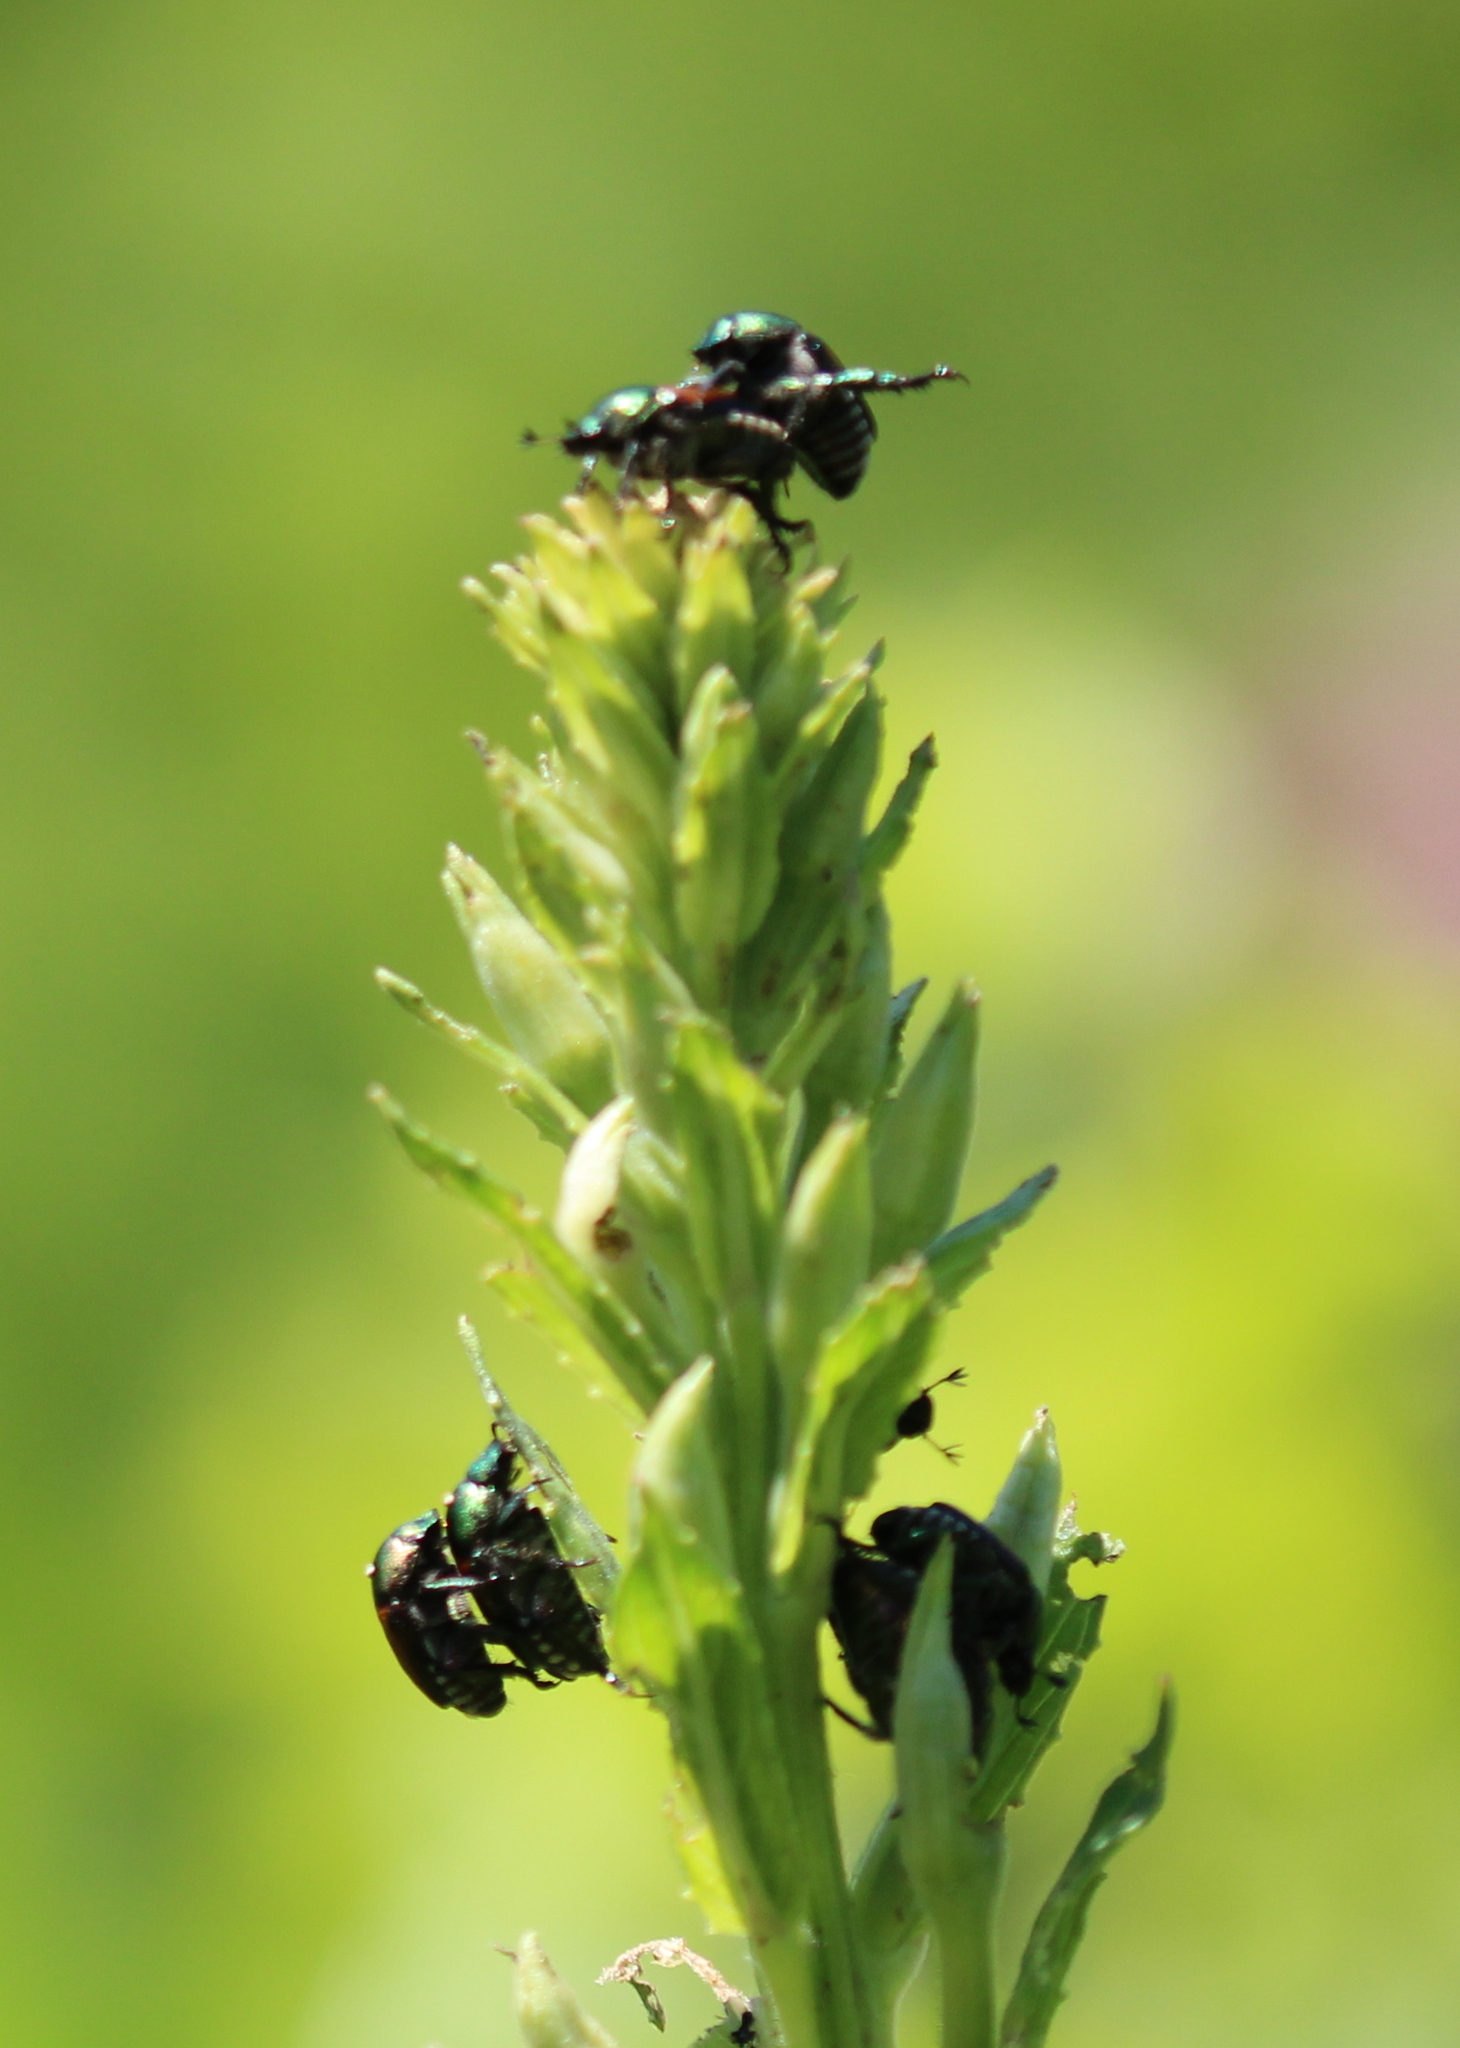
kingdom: Animalia
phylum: Arthropoda
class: Insecta
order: Coleoptera
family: Scarabaeidae
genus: Popillia
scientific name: Popillia japonica
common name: Japanese beetle
